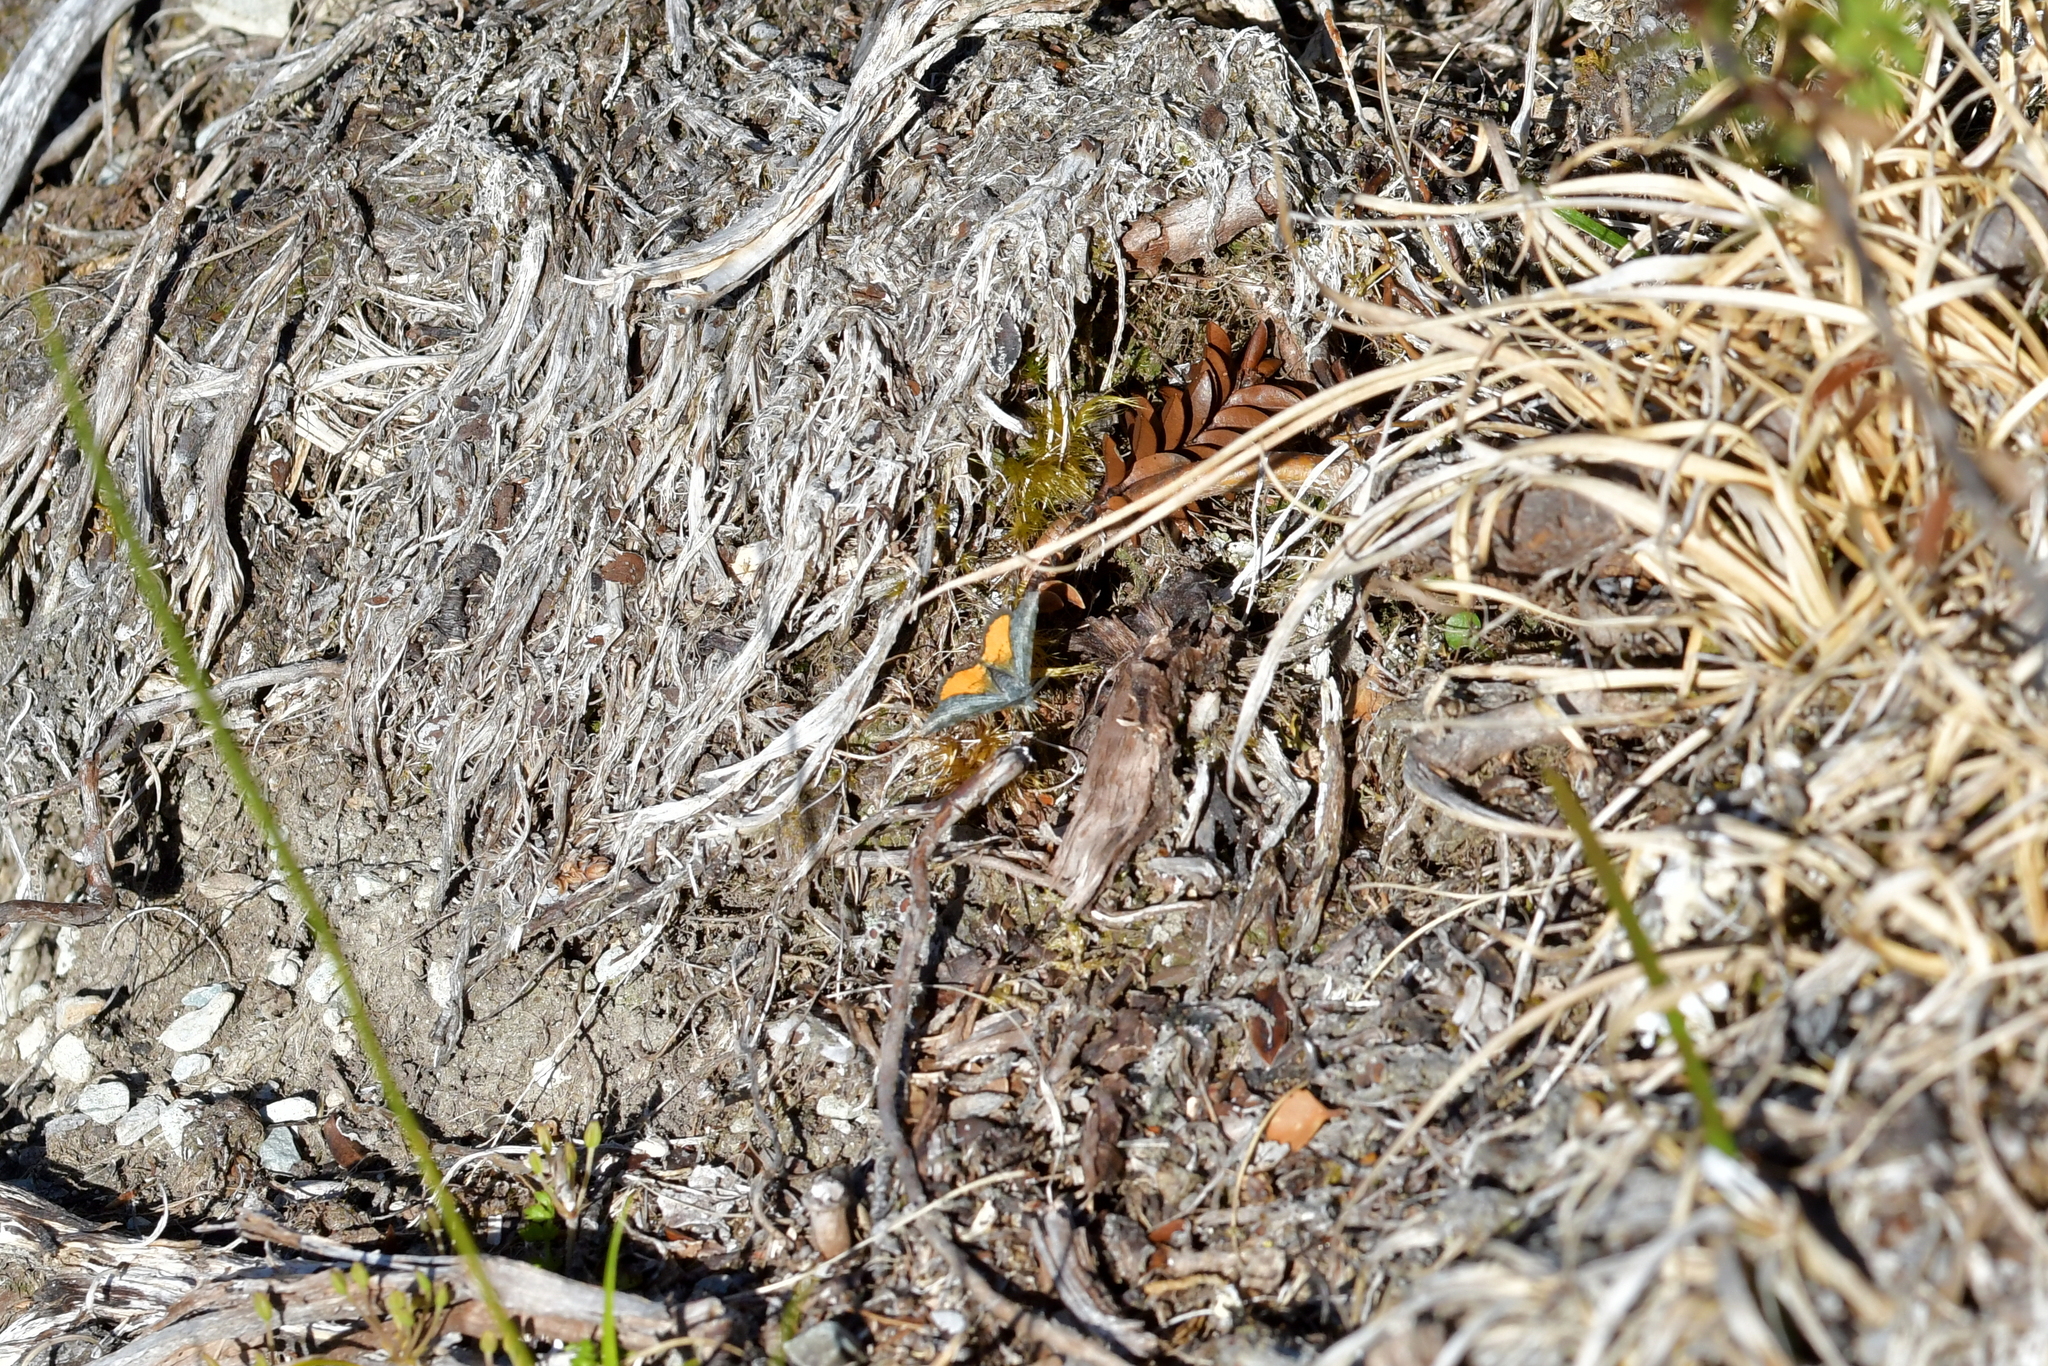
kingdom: Animalia
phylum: Arthropoda
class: Insecta
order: Lepidoptera
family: Geometridae
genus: Paranotoreas
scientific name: Paranotoreas zopyra
